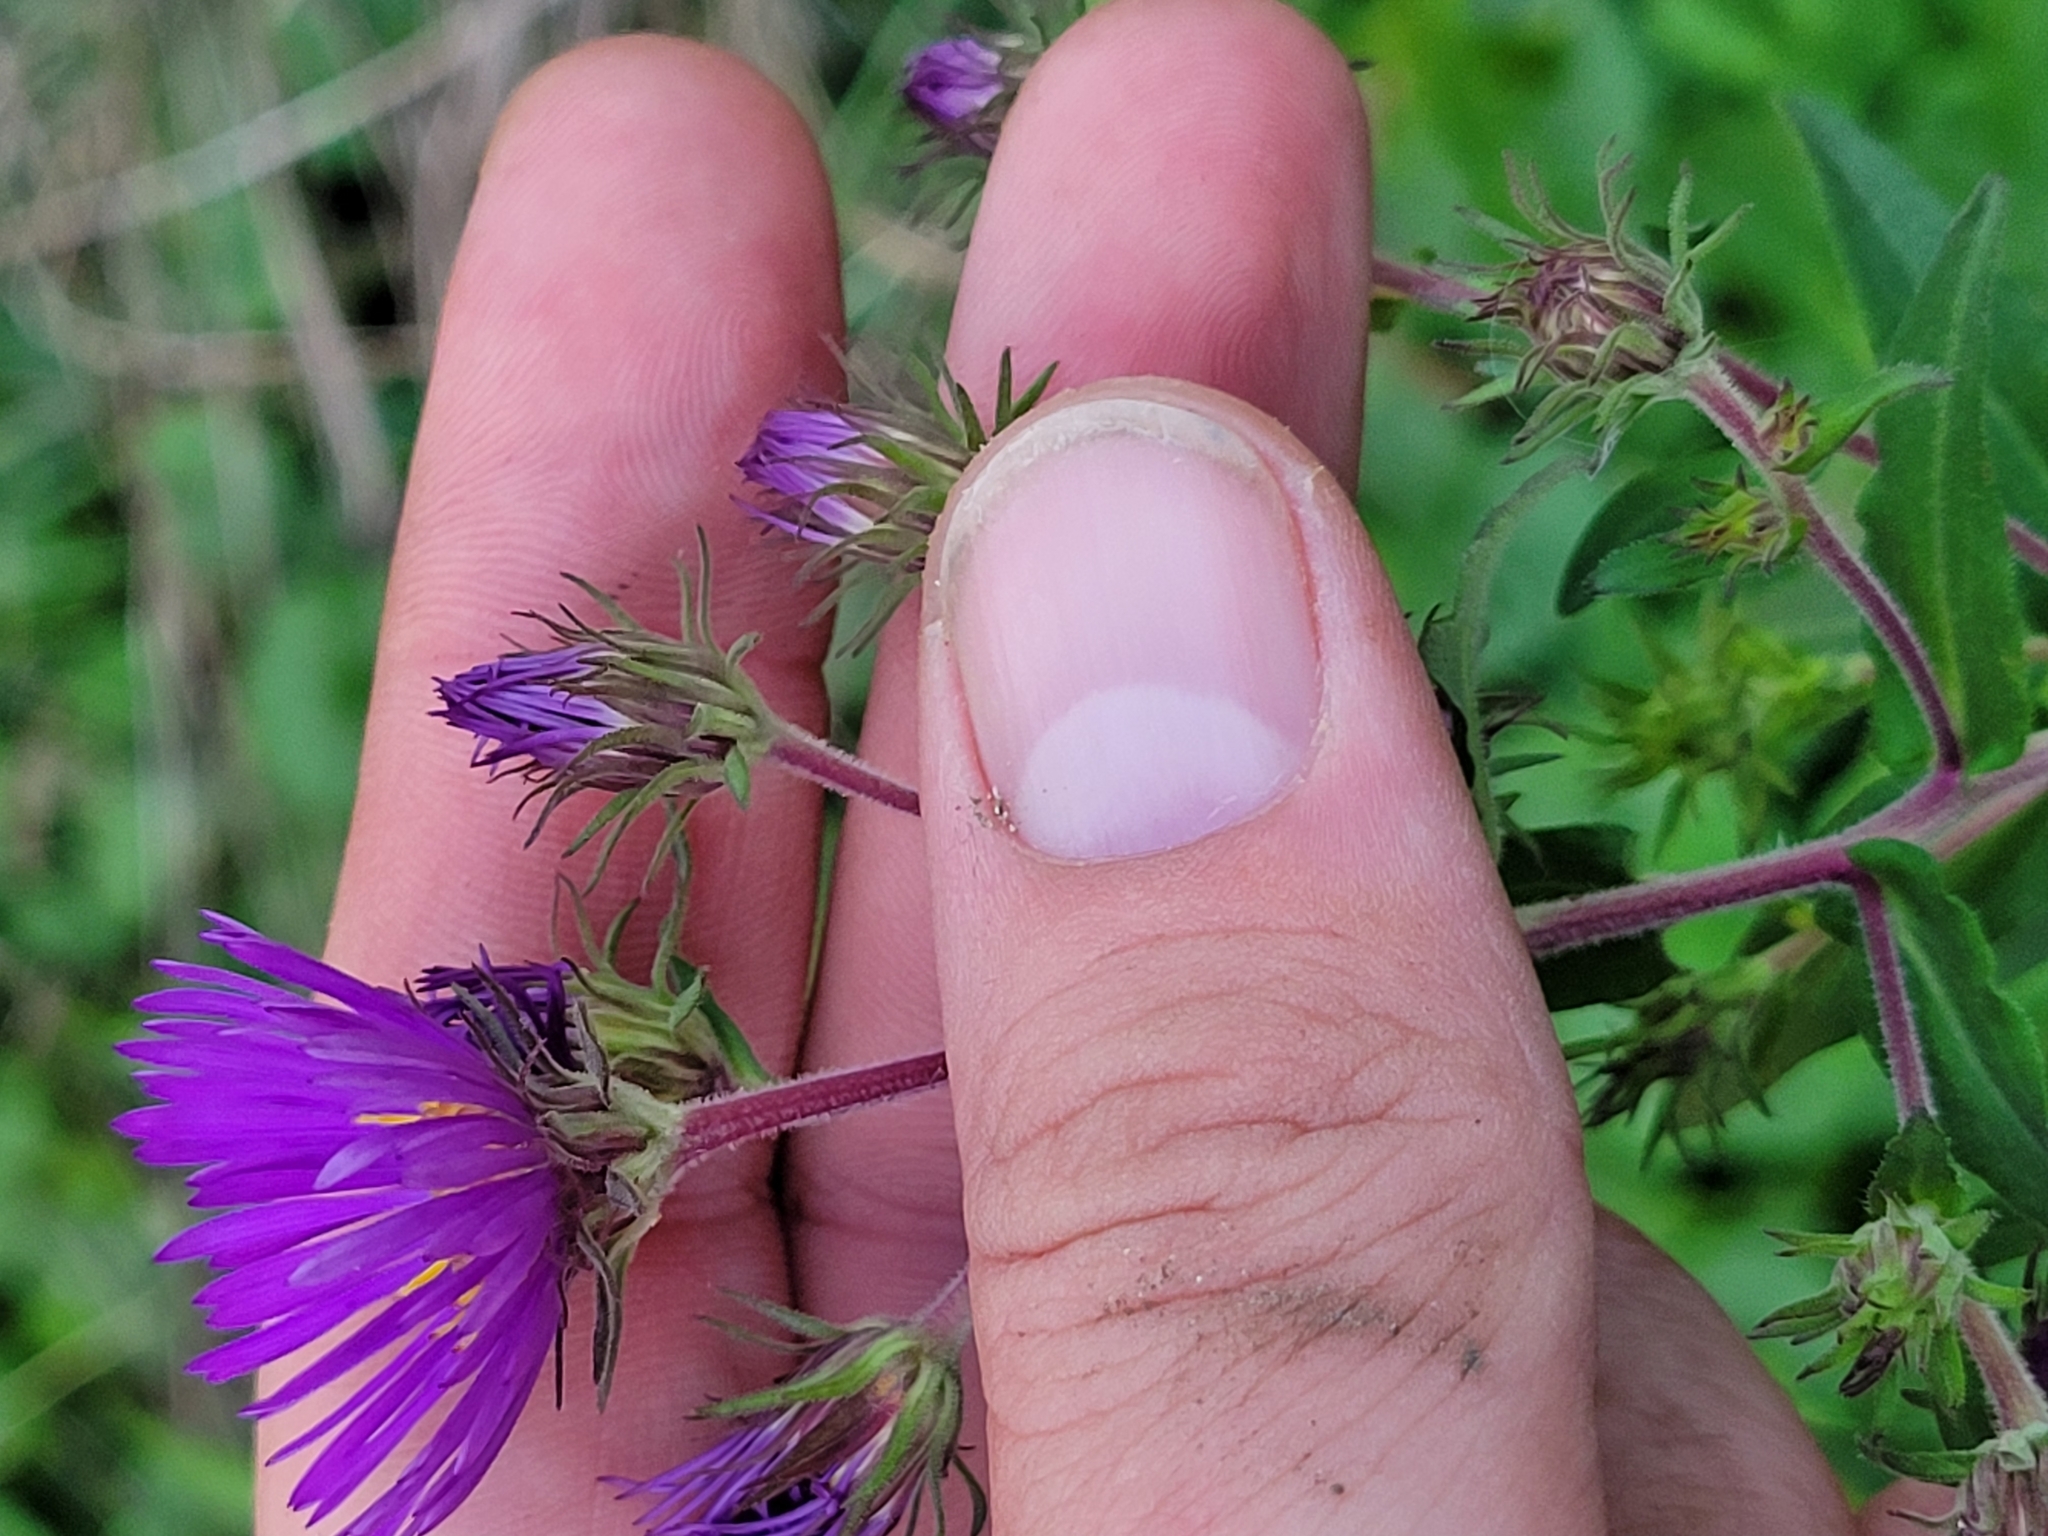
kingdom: Plantae
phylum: Tracheophyta
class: Magnoliopsida
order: Asterales
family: Asteraceae
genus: Symphyotrichum
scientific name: Symphyotrichum novae-angliae
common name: Michaelmas daisy
